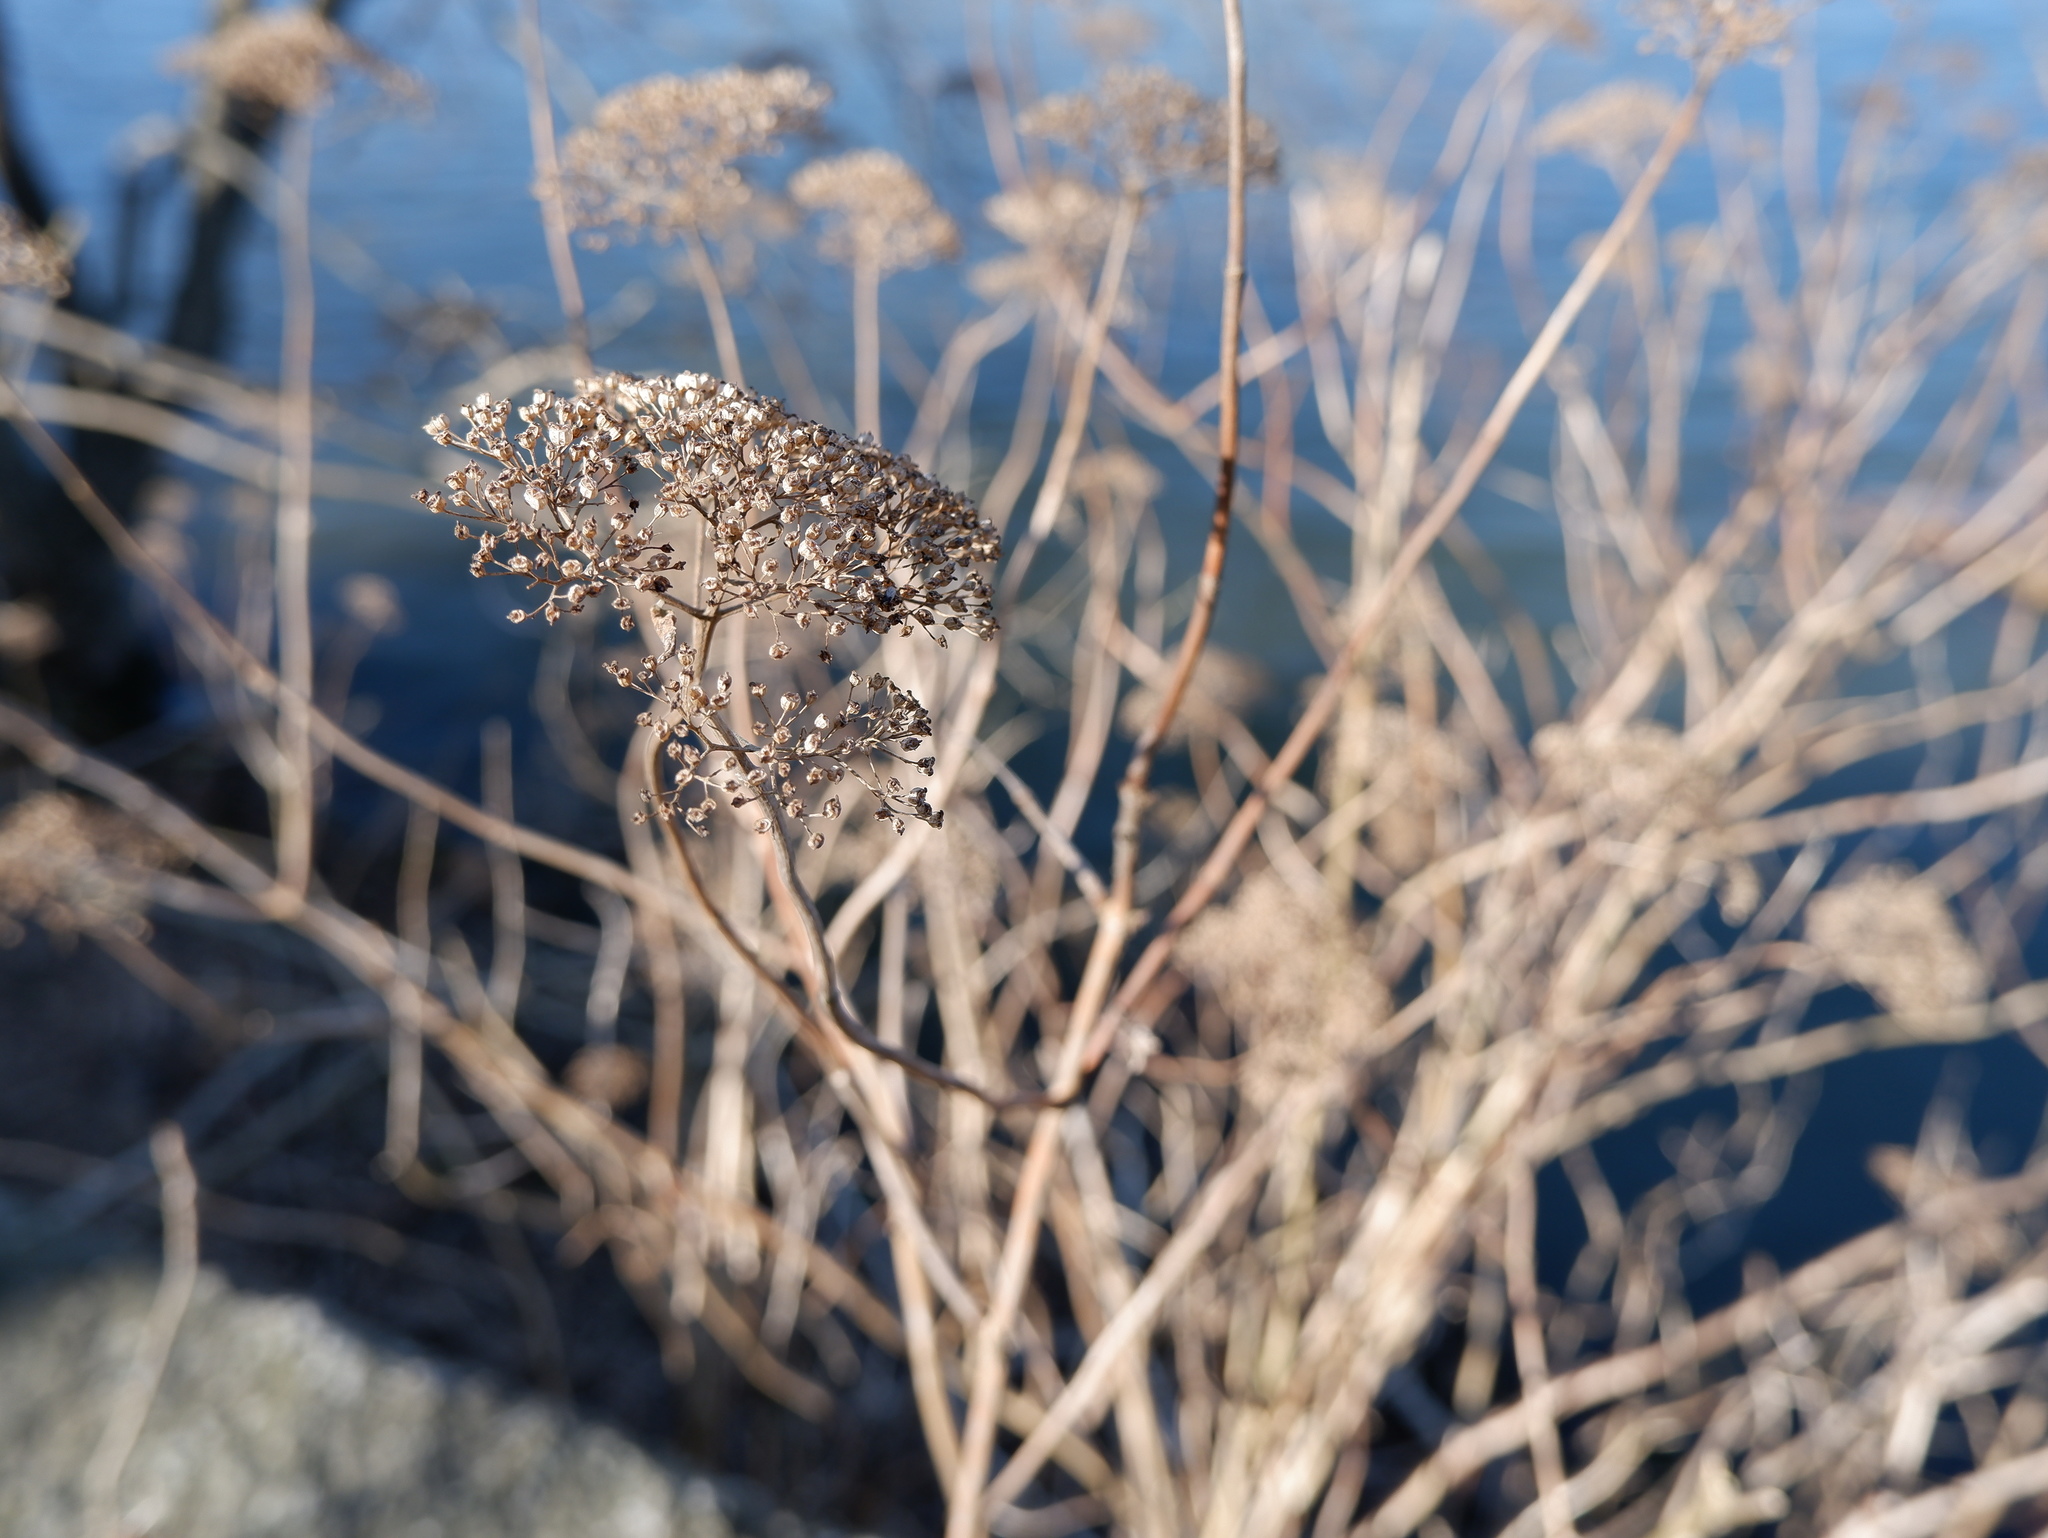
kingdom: Plantae
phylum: Tracheophyta
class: Magnoliopsida
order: Cornales
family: Hydrangeaceae
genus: Hydrangea
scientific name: Hydrangea arborescens
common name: Sevenbark
